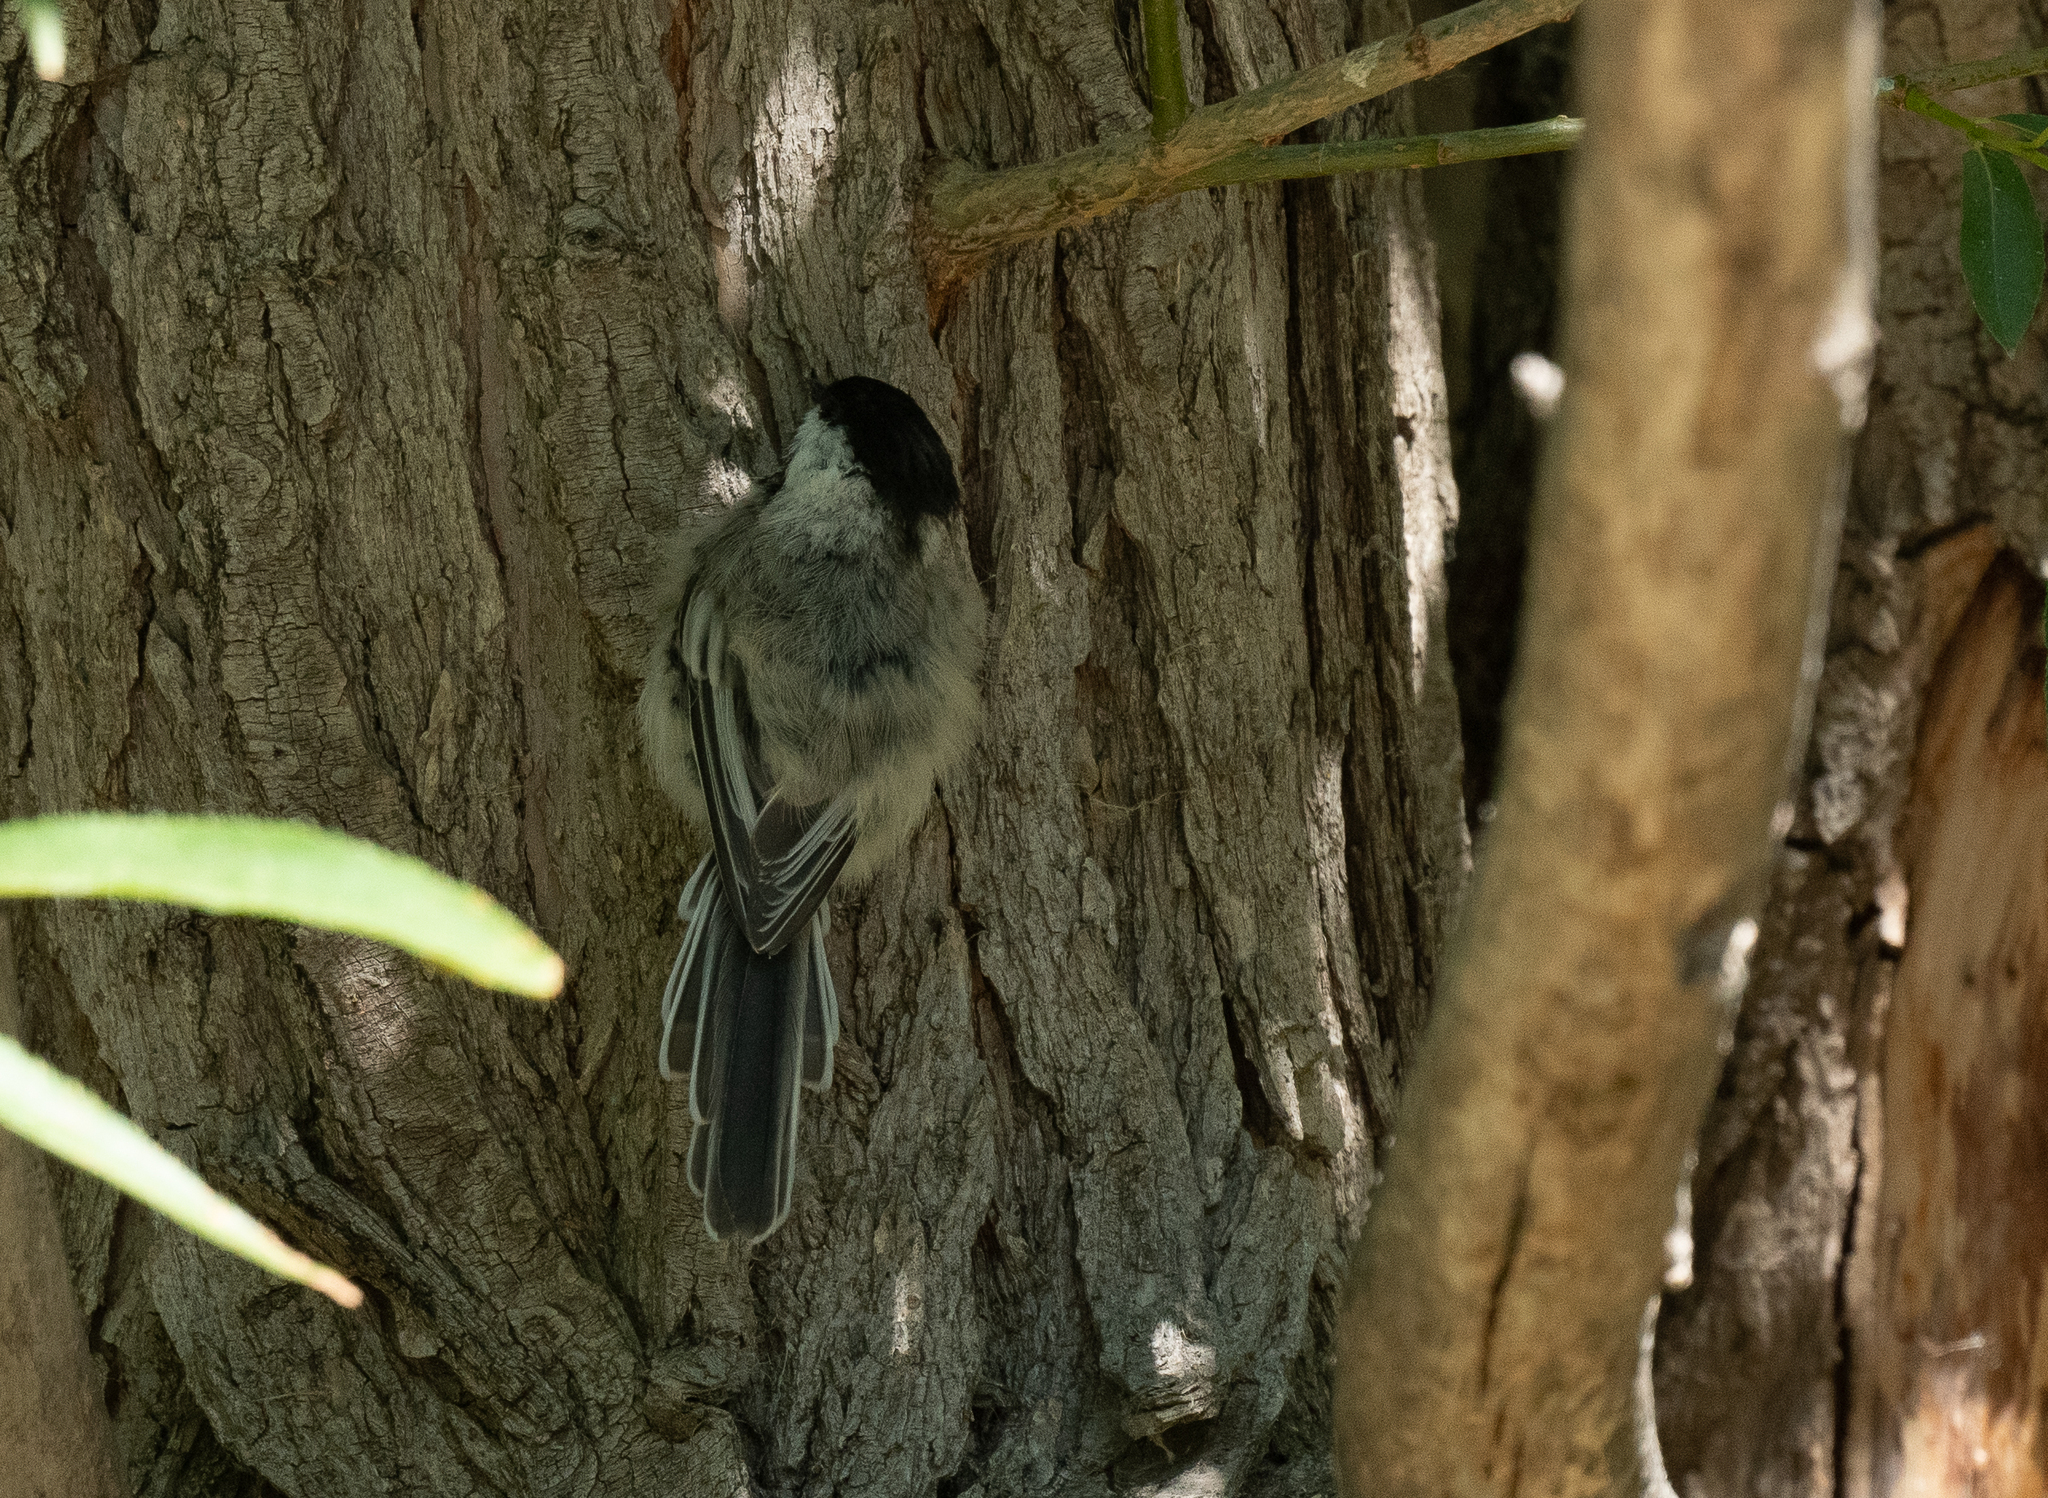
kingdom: Animalia
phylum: Chordata
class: Aves
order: Passeriformes
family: Paridae
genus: Poecile
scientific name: Poecile atricapillus
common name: Black-capped chickadee
